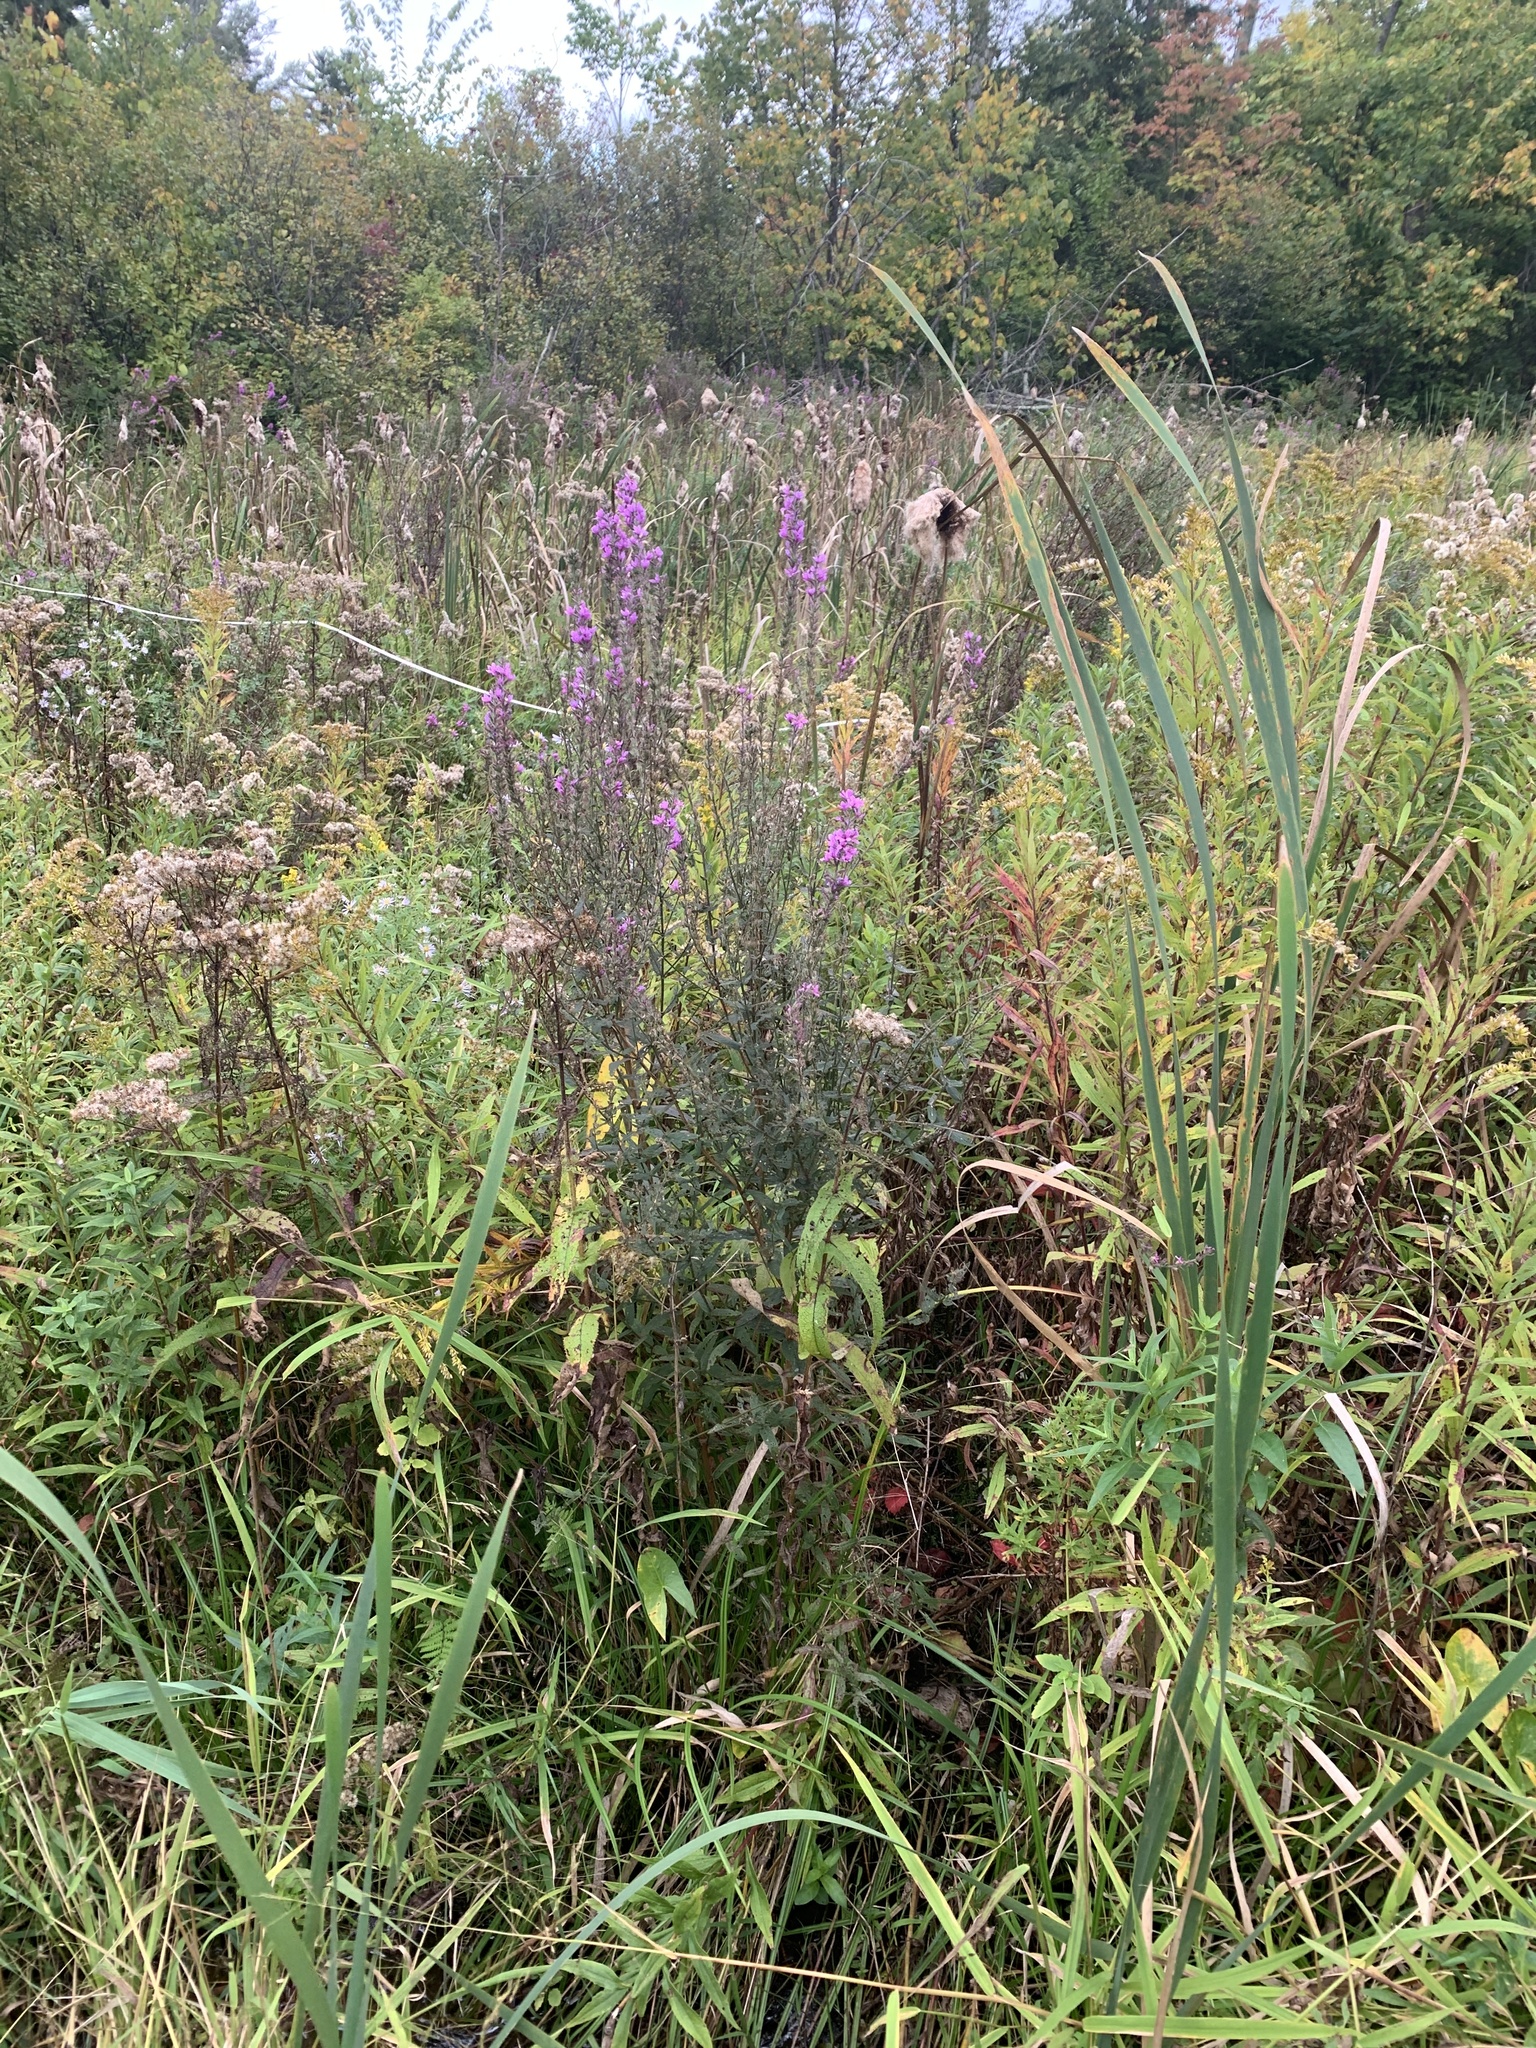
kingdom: Plantae
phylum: Tracheophyta
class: Magnoliopsida
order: Myrtales
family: Lythraceae
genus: Lythrum
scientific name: Lythrum salicaria
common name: Purple loosestrife
